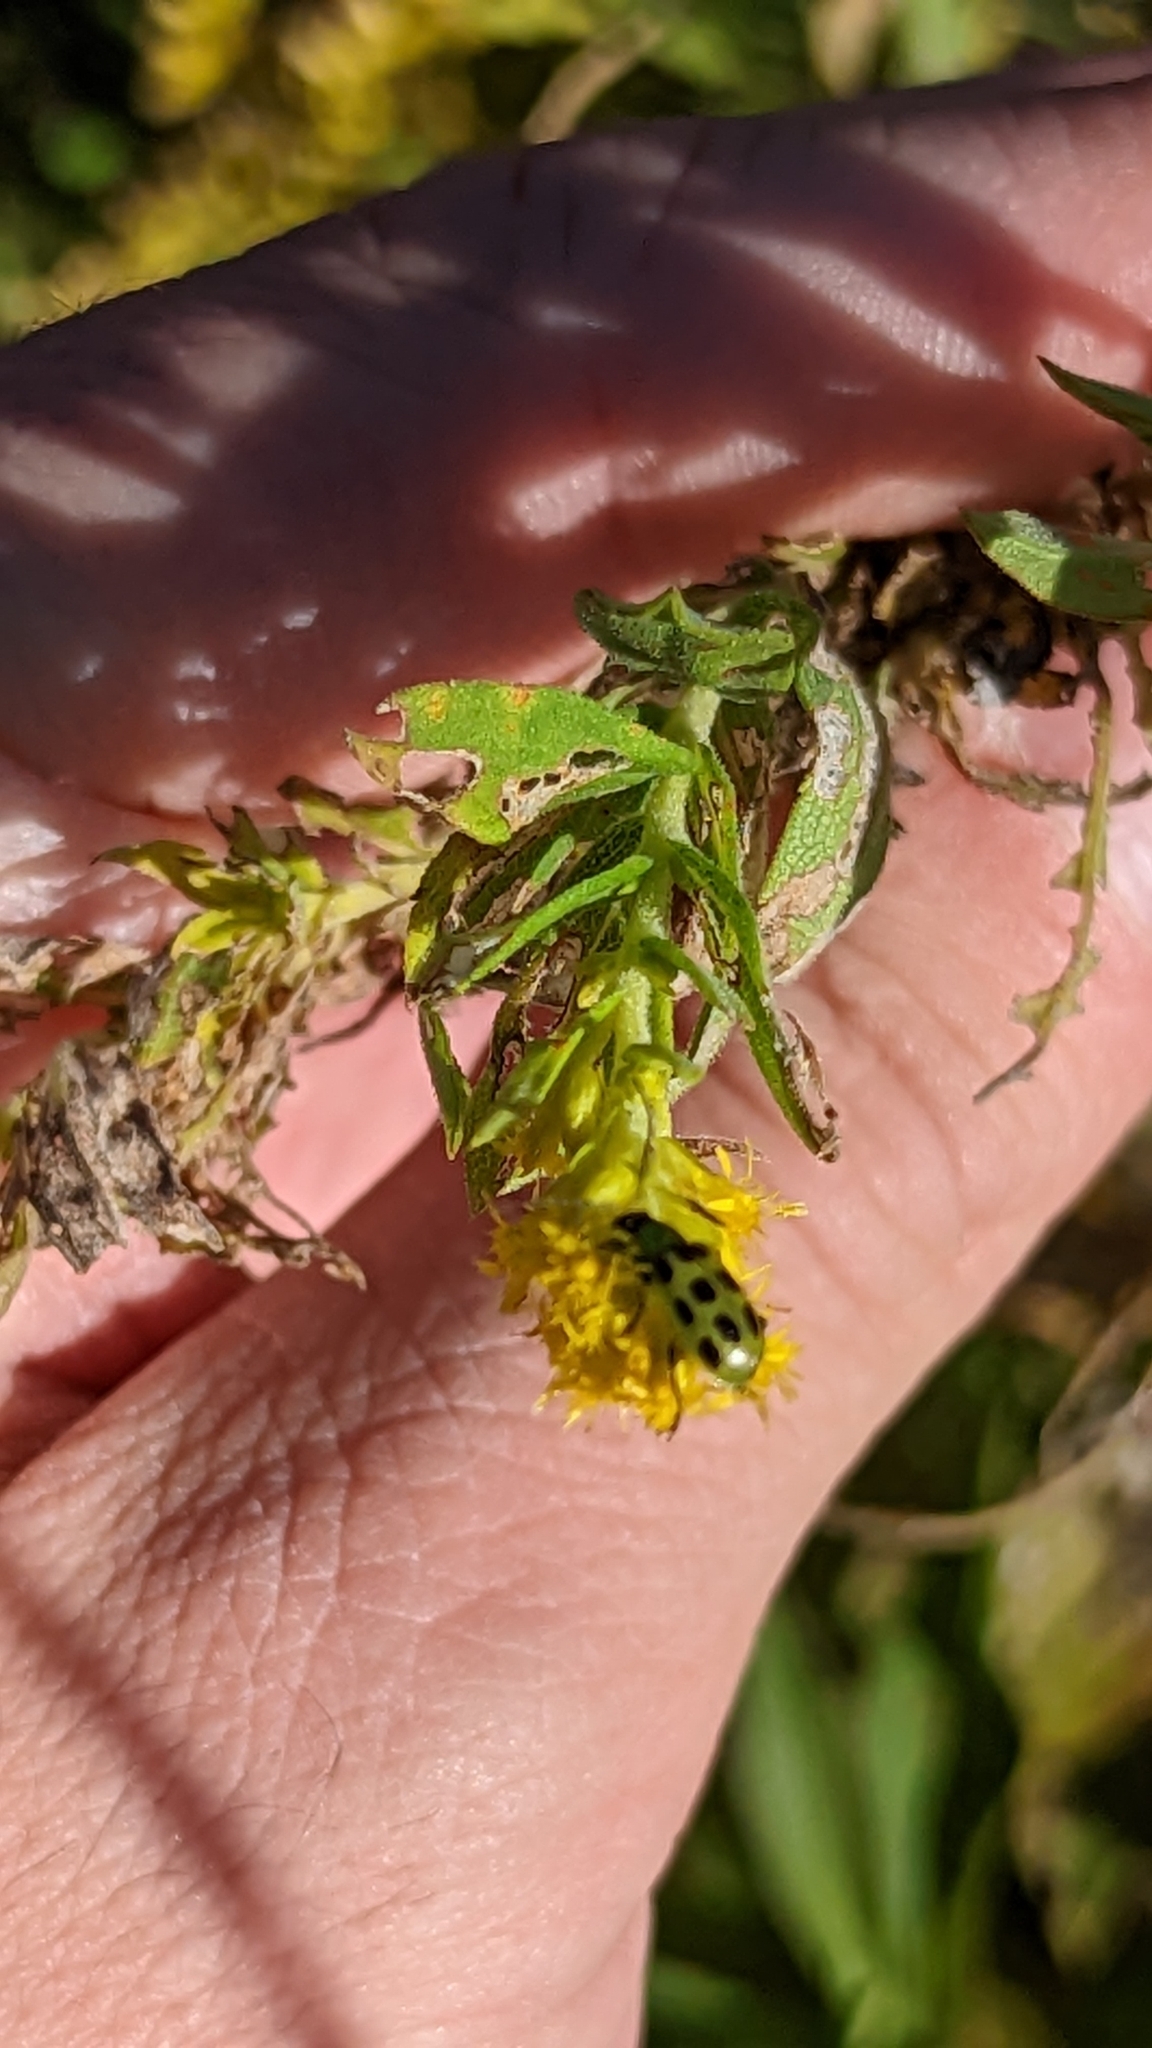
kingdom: Animalia
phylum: Arthropoda
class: Insecta
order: Coleoptera
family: Chrysomelidae
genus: Diabrotica
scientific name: Diabrotica undecimpunctata
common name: Spotted cucumber beetle
